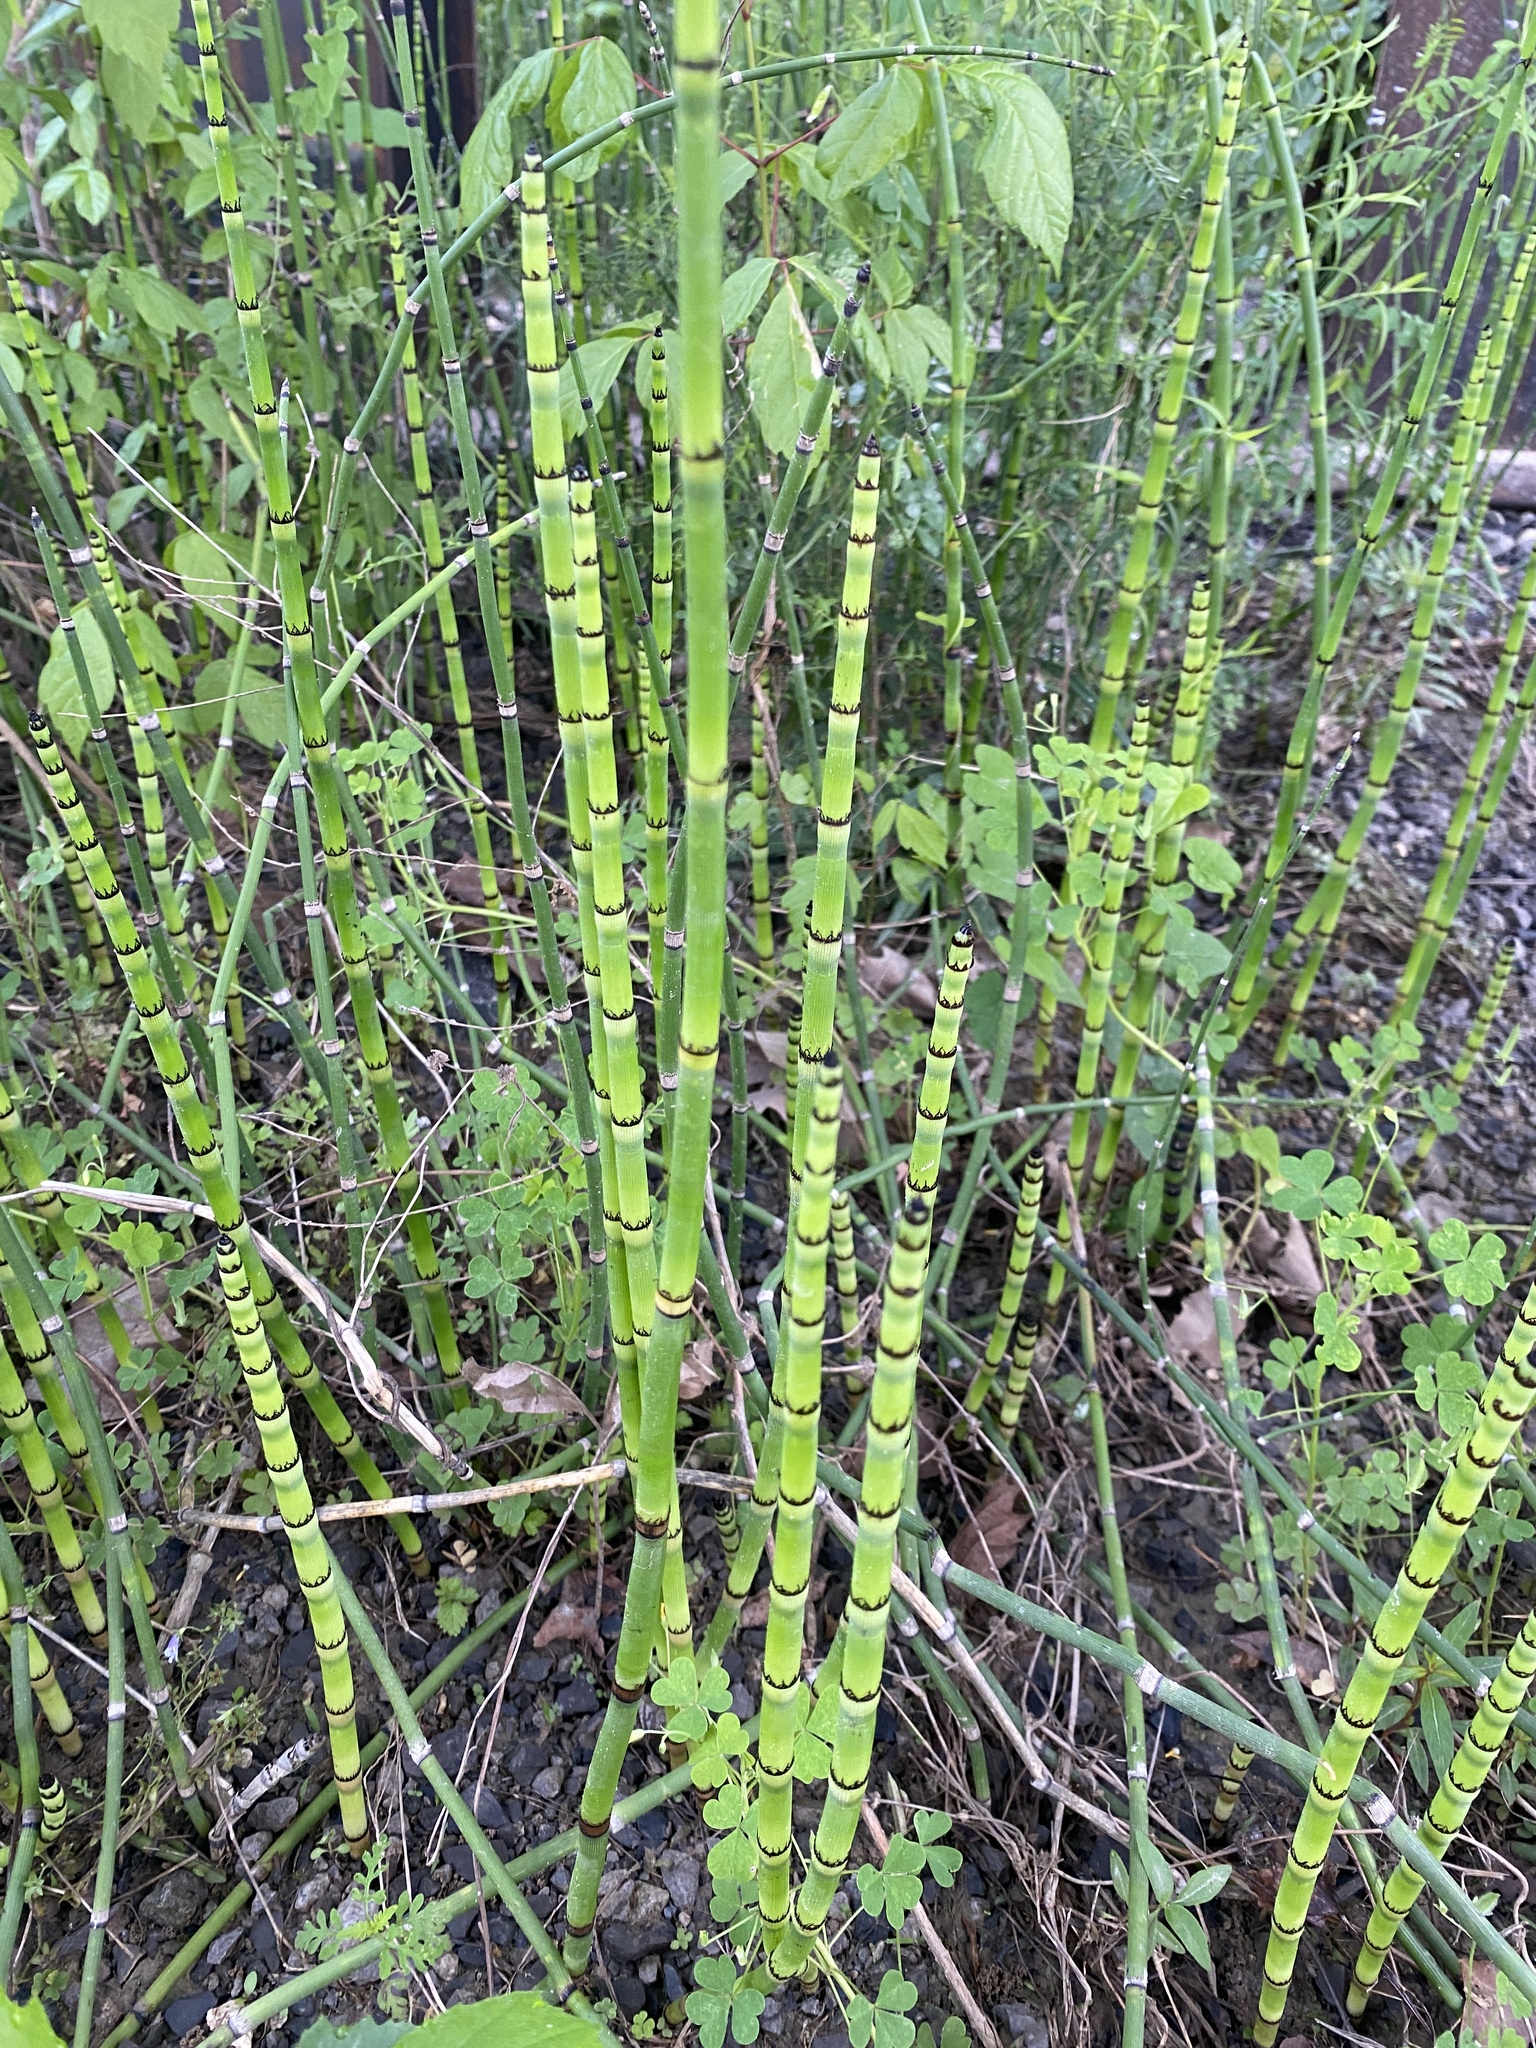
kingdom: Plantae
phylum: Tracheophyta
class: Polypodiopsida
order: Equisetales
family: Equisetaceae
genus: Equisetum
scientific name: Equisetum praealtum
